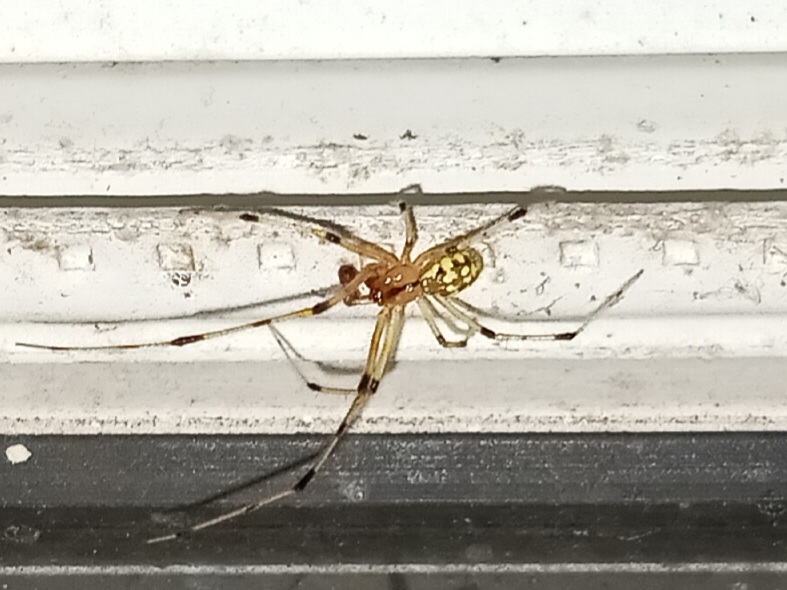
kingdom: Animalia
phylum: Arthropoda
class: Arachnida
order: Araneae
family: Theridiidae
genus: Phylloneta
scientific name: Phylloneta pictipes
